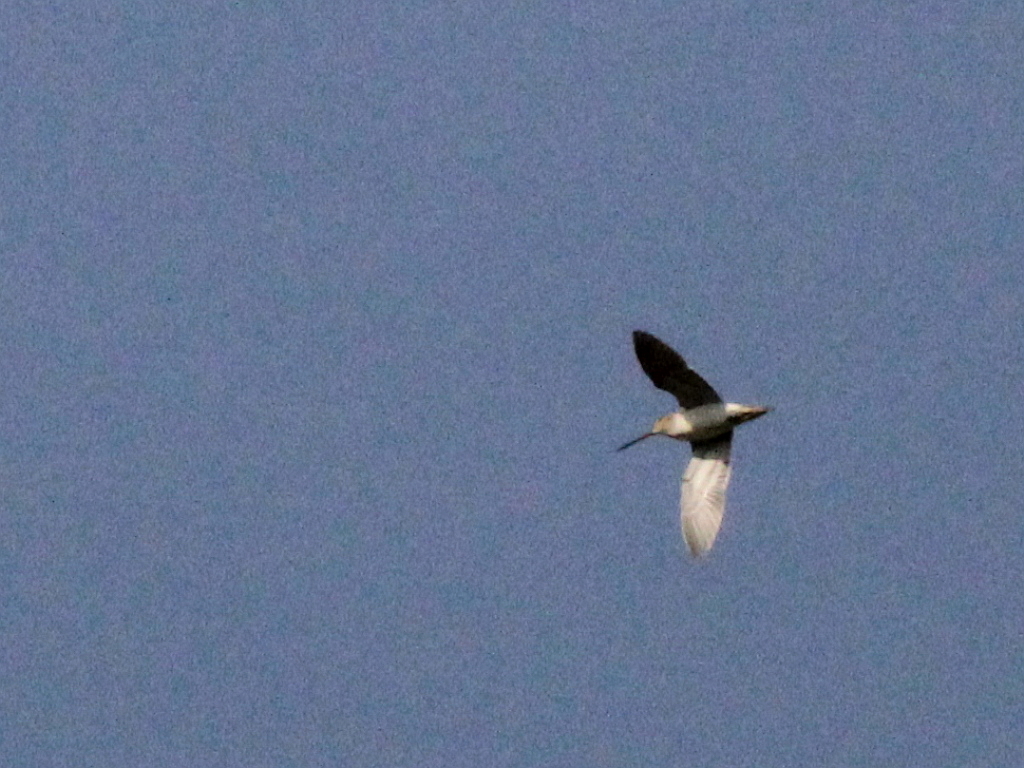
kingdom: Animalia
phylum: Chordata
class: Aves
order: Charadriiformes
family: Scolopacidae
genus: Gallinago
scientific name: Gallinago gallinago
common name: Common snipe
